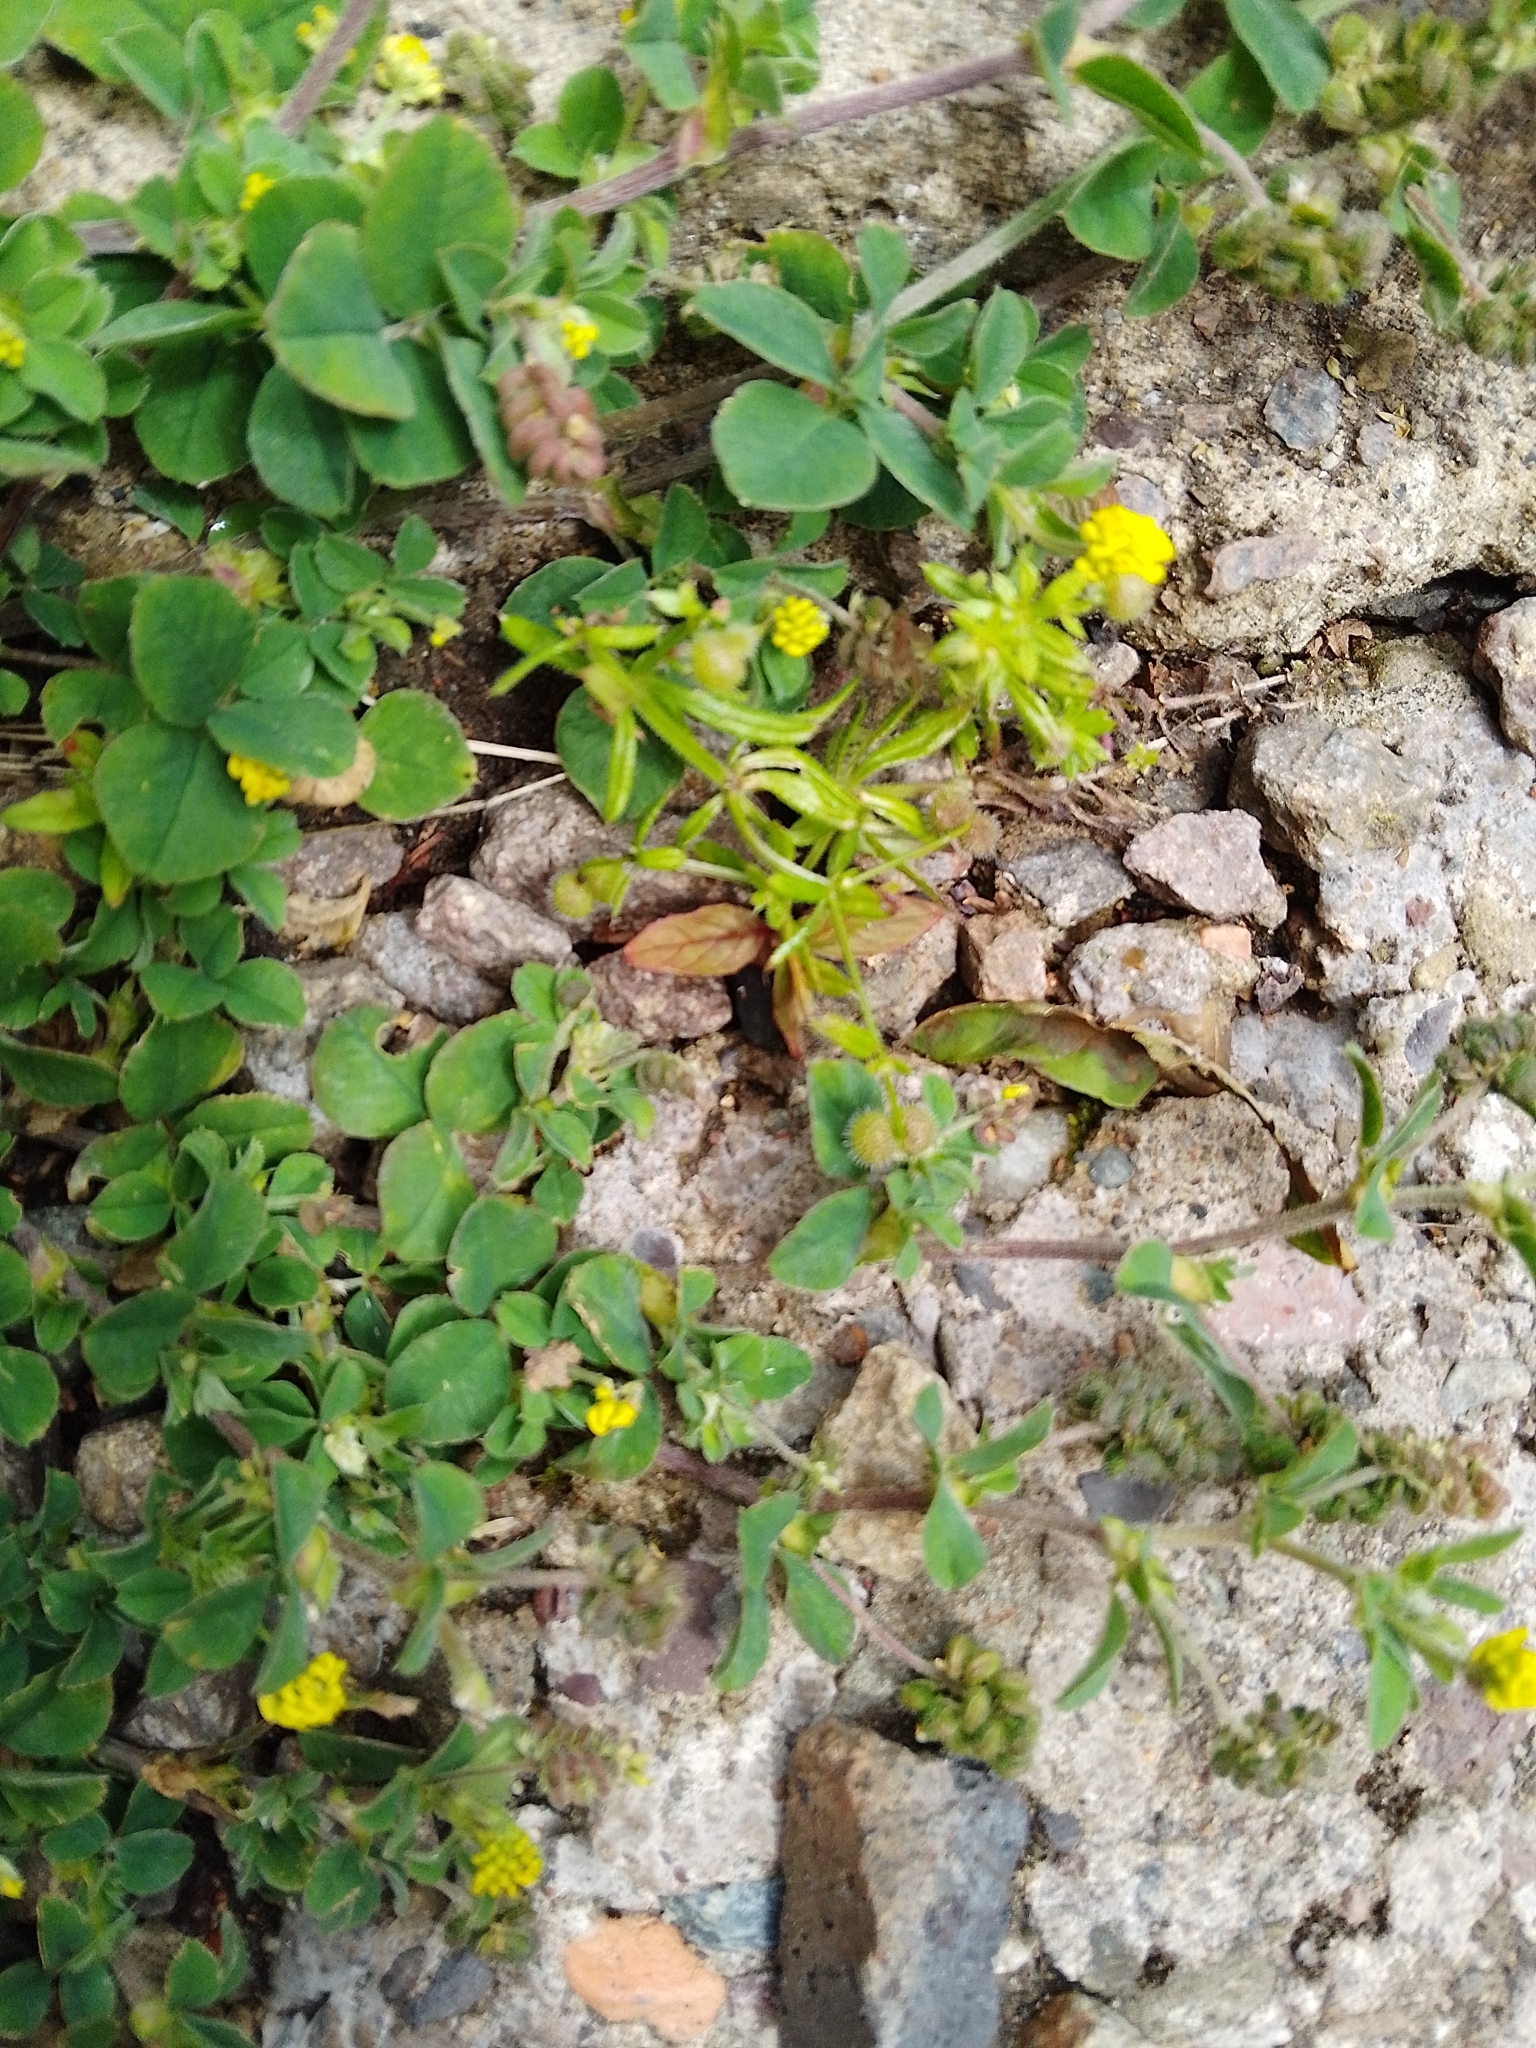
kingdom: Plantae
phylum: Tracheophyta
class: Magnoliopsida
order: Fabales
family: Fabaceae
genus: Medicago
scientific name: Medicago lupulina
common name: Black medick
